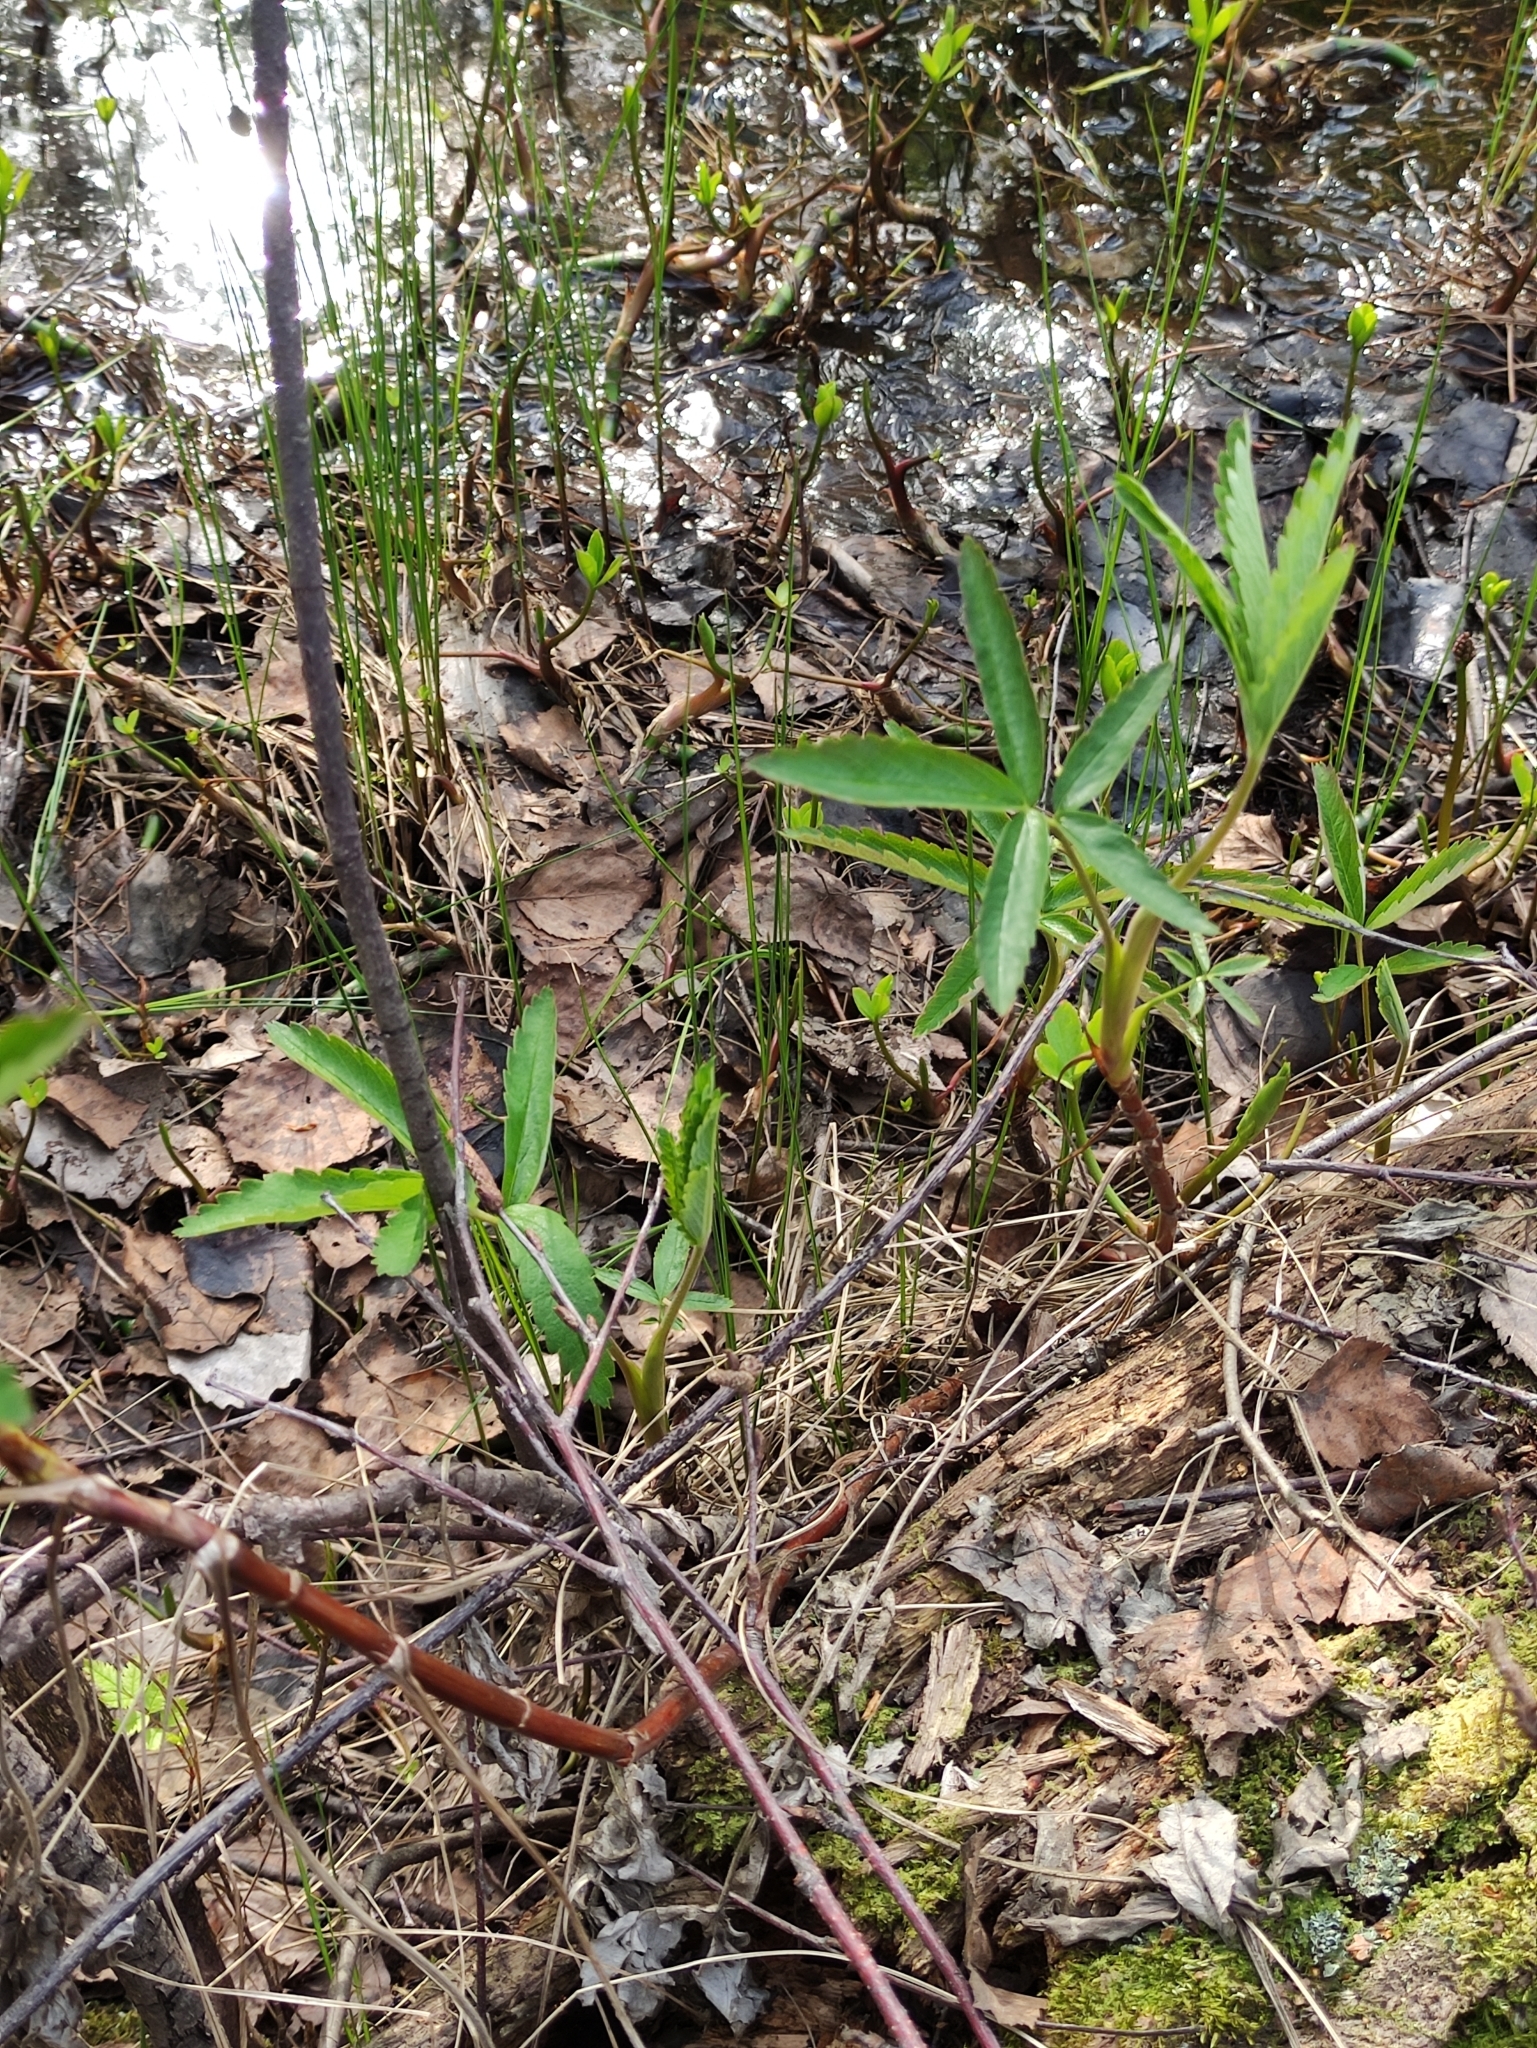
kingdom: Plantae
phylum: Tracheophyta
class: Magnoliopsida
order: Rosales
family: Rosaceae
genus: Comarum
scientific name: Comarum palustre
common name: Marsh cinquefoil
